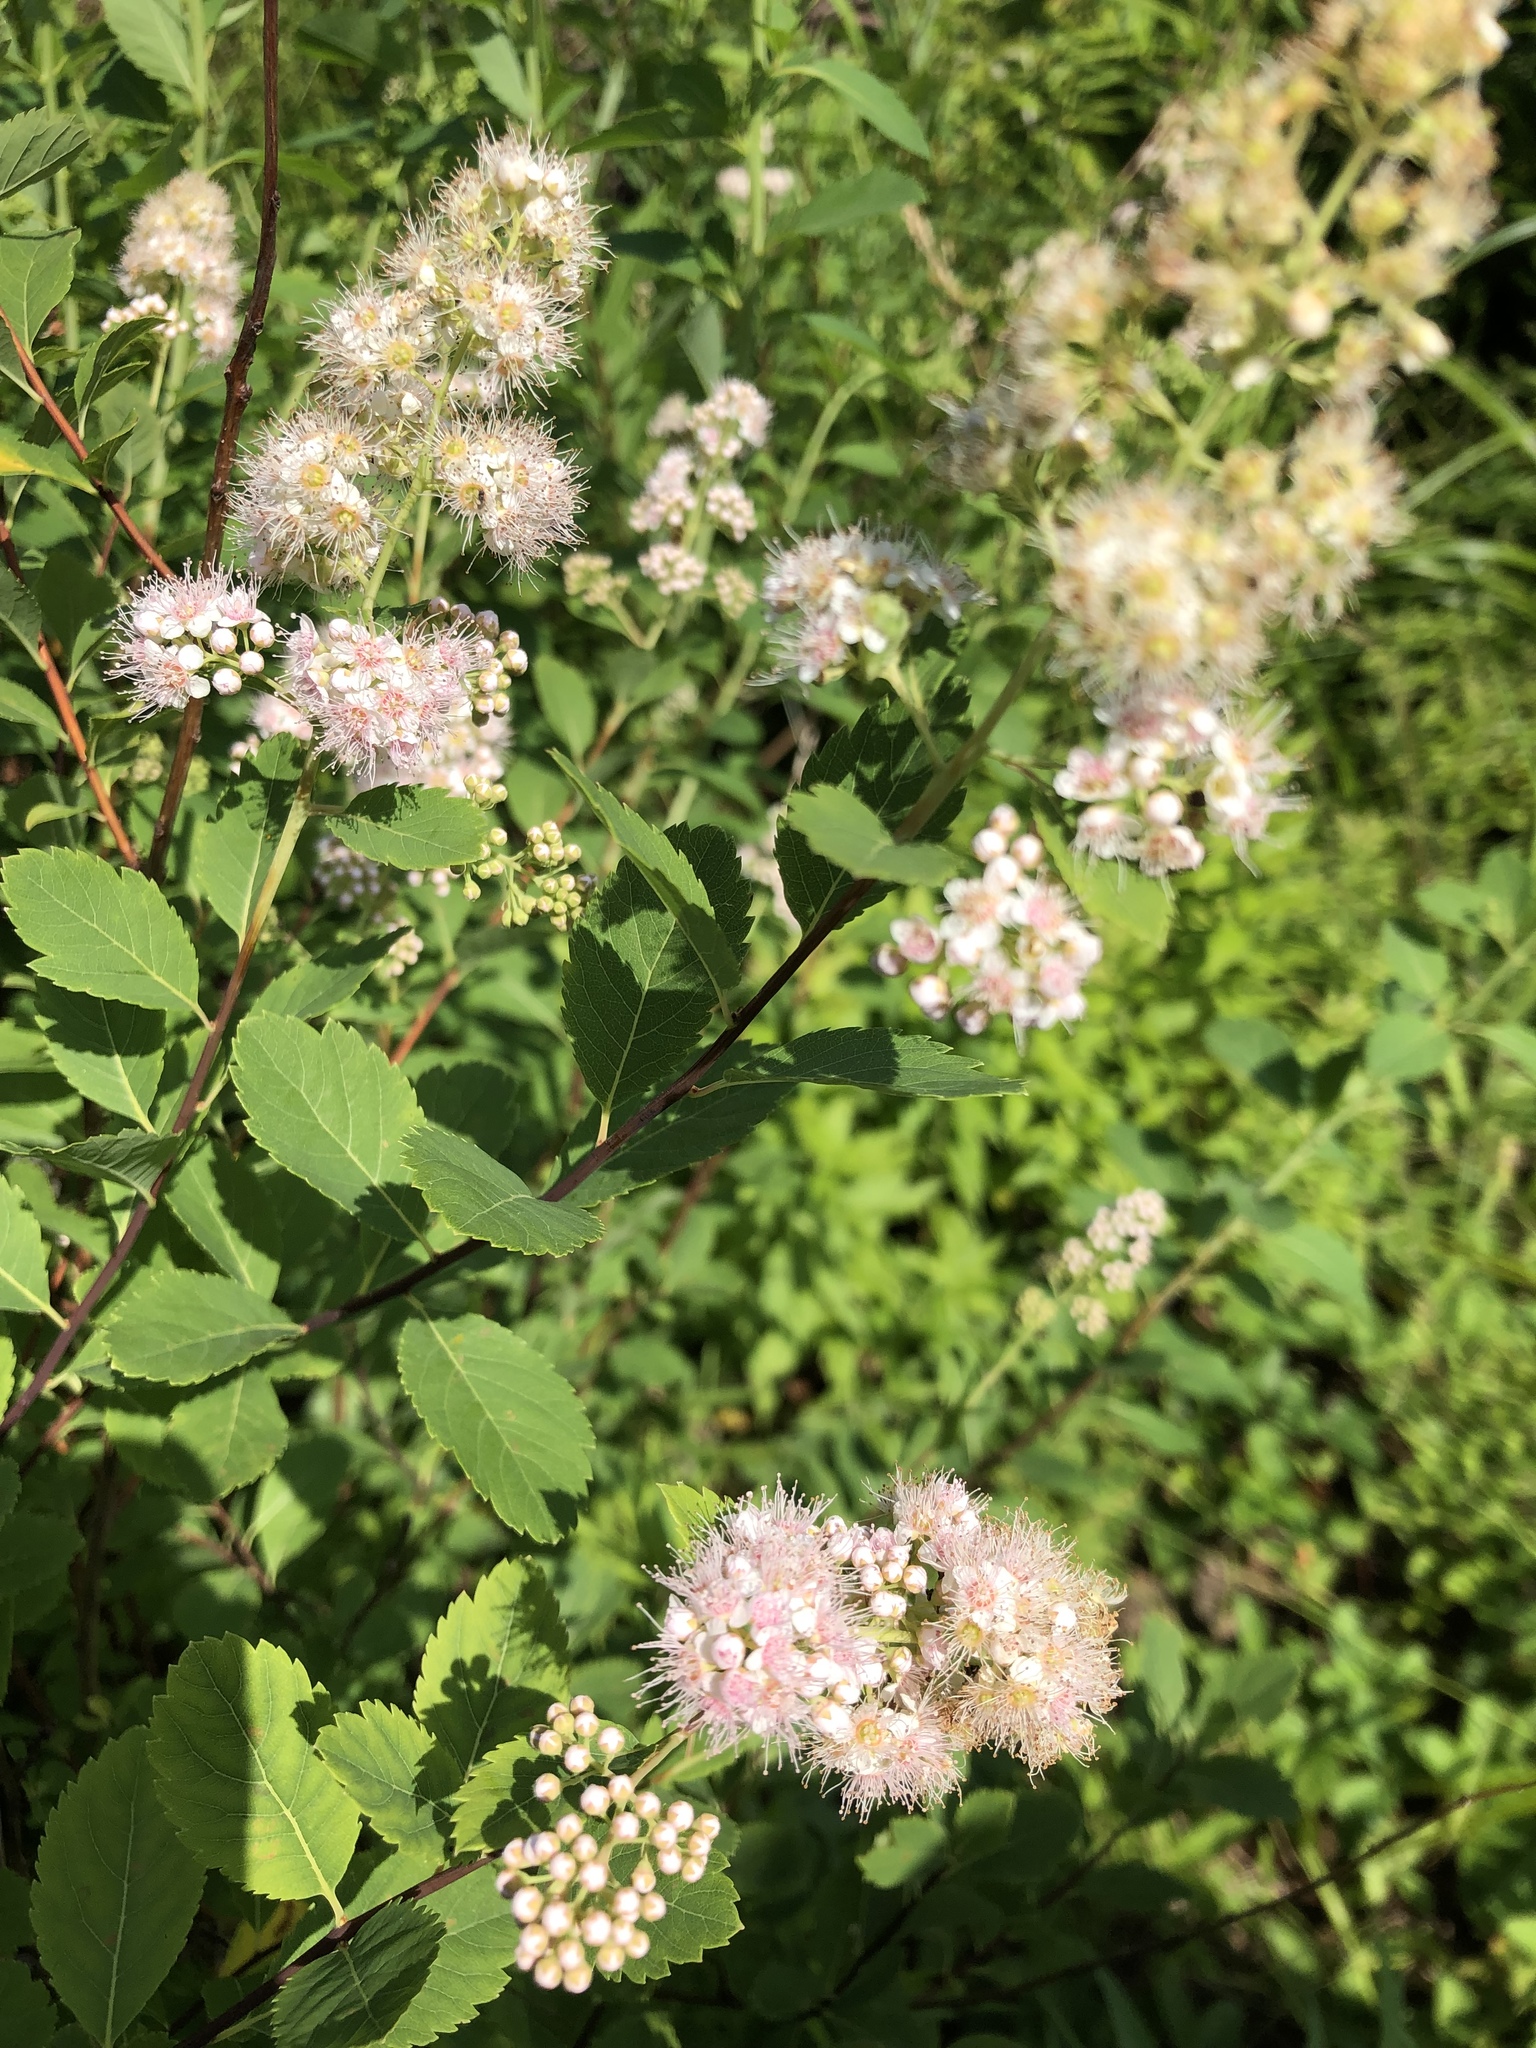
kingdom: Plantae
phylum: Tracheophyta
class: Magnoliopsida
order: Rosales
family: Rosaceae
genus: Spiraea
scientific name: Spiraea alba
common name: Pale bridewort
